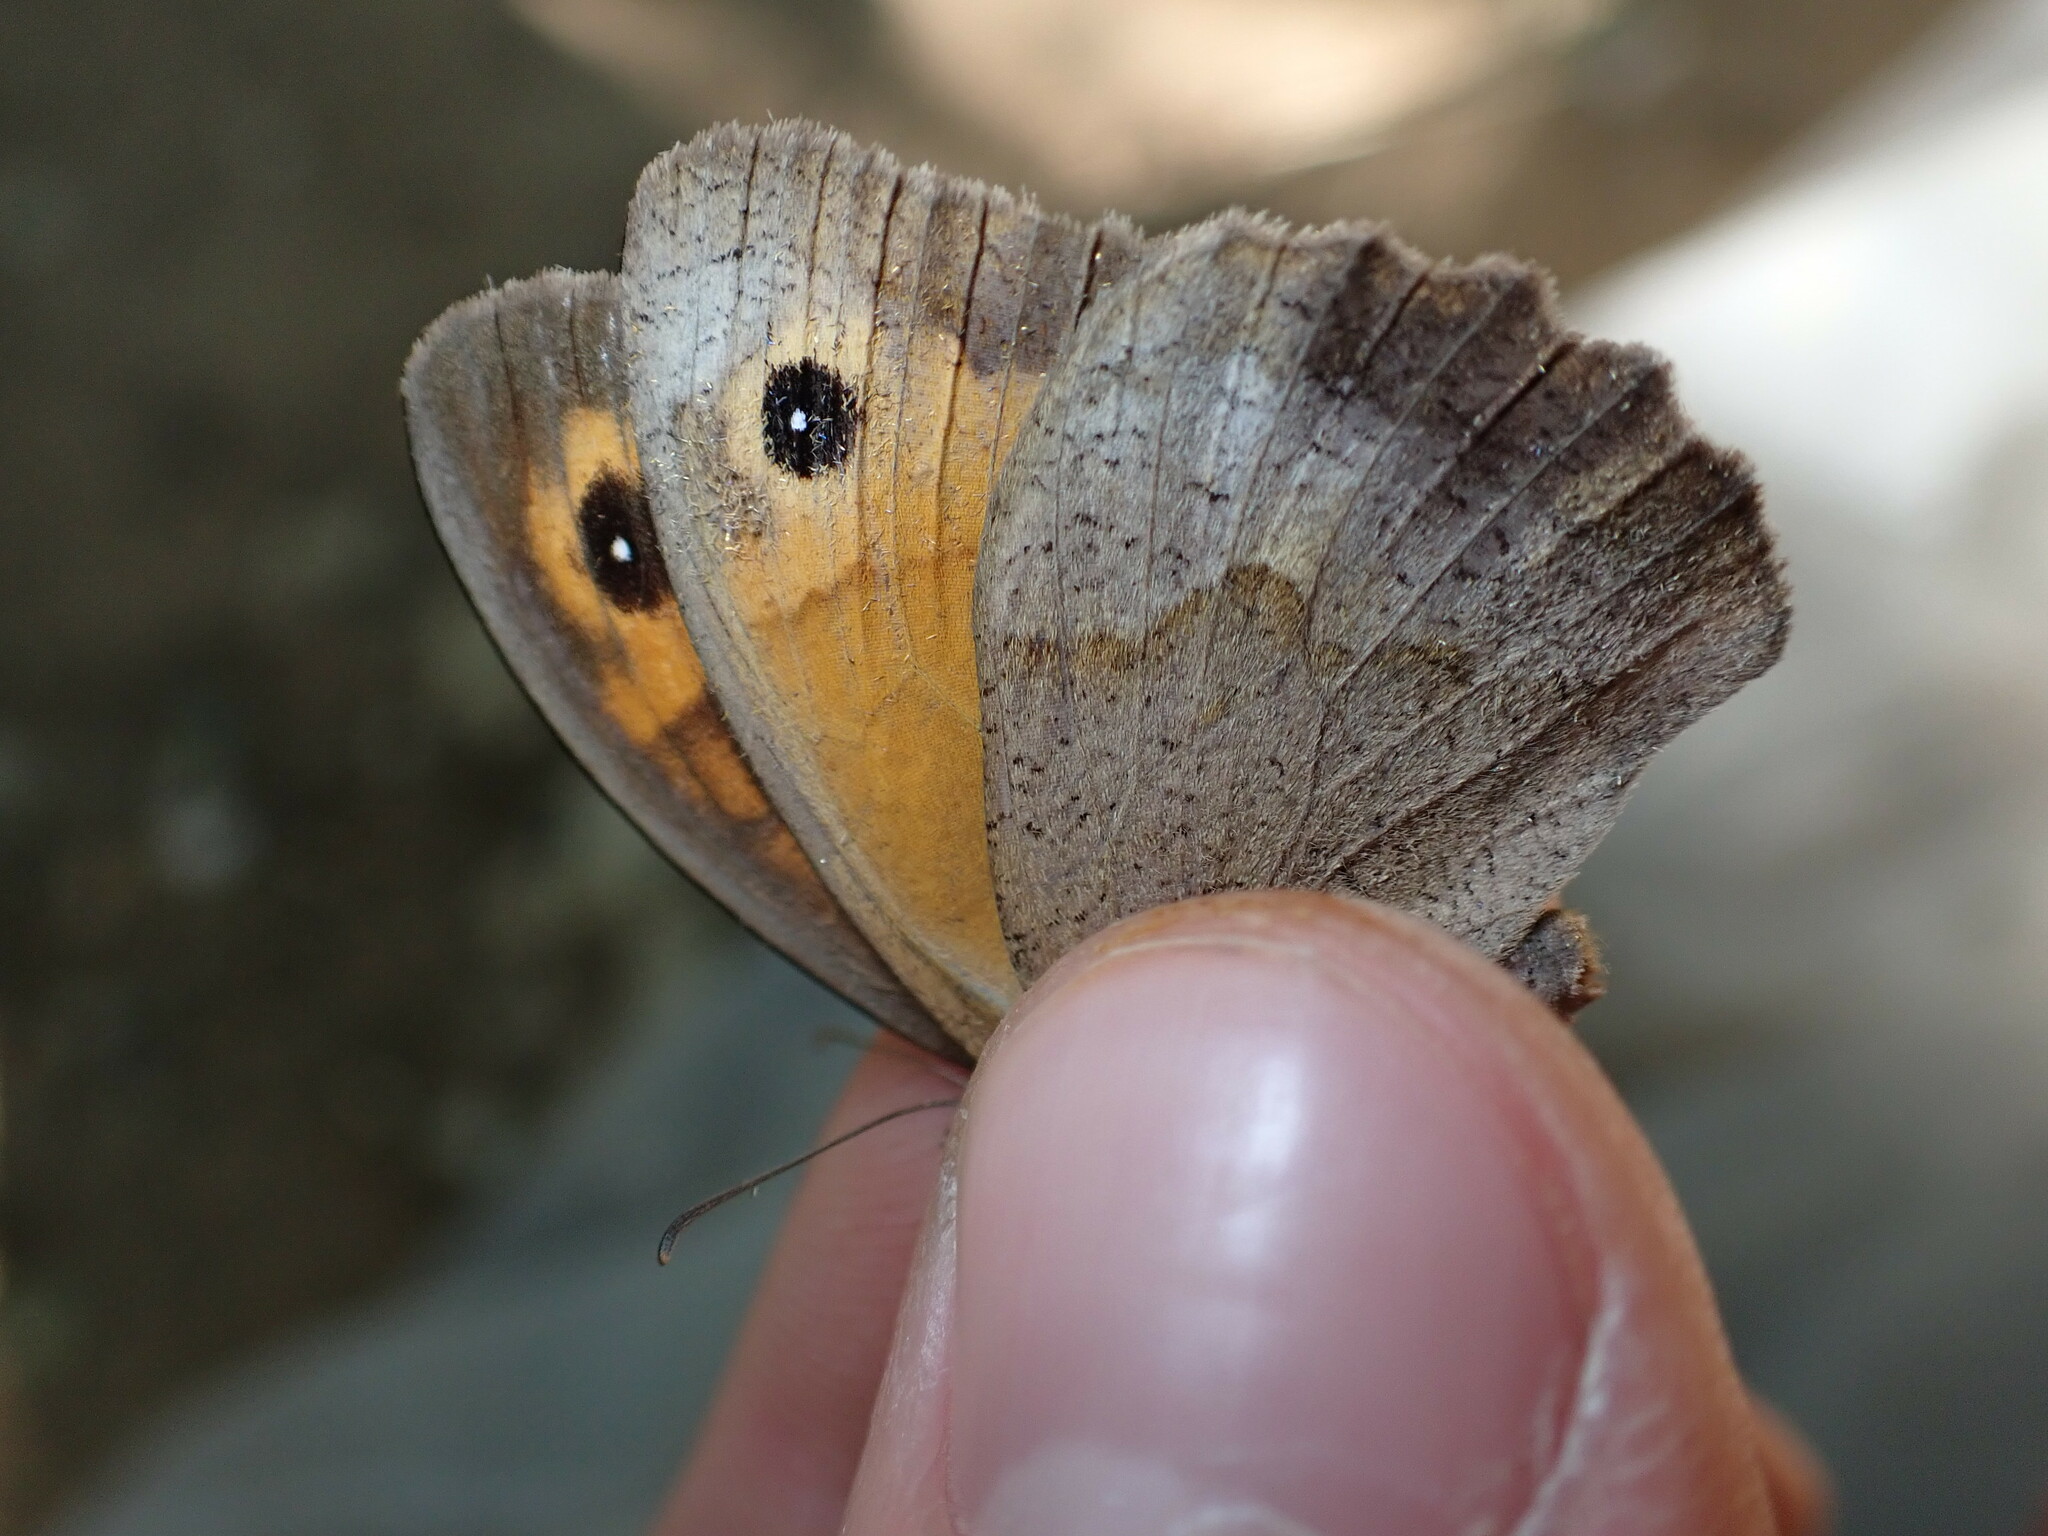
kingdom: Animalia
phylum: Arthropoda
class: Insecta
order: Lepidoptera
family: Nymphalidae
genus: Maniola
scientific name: Maniola jurtina
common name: Meadow brown
